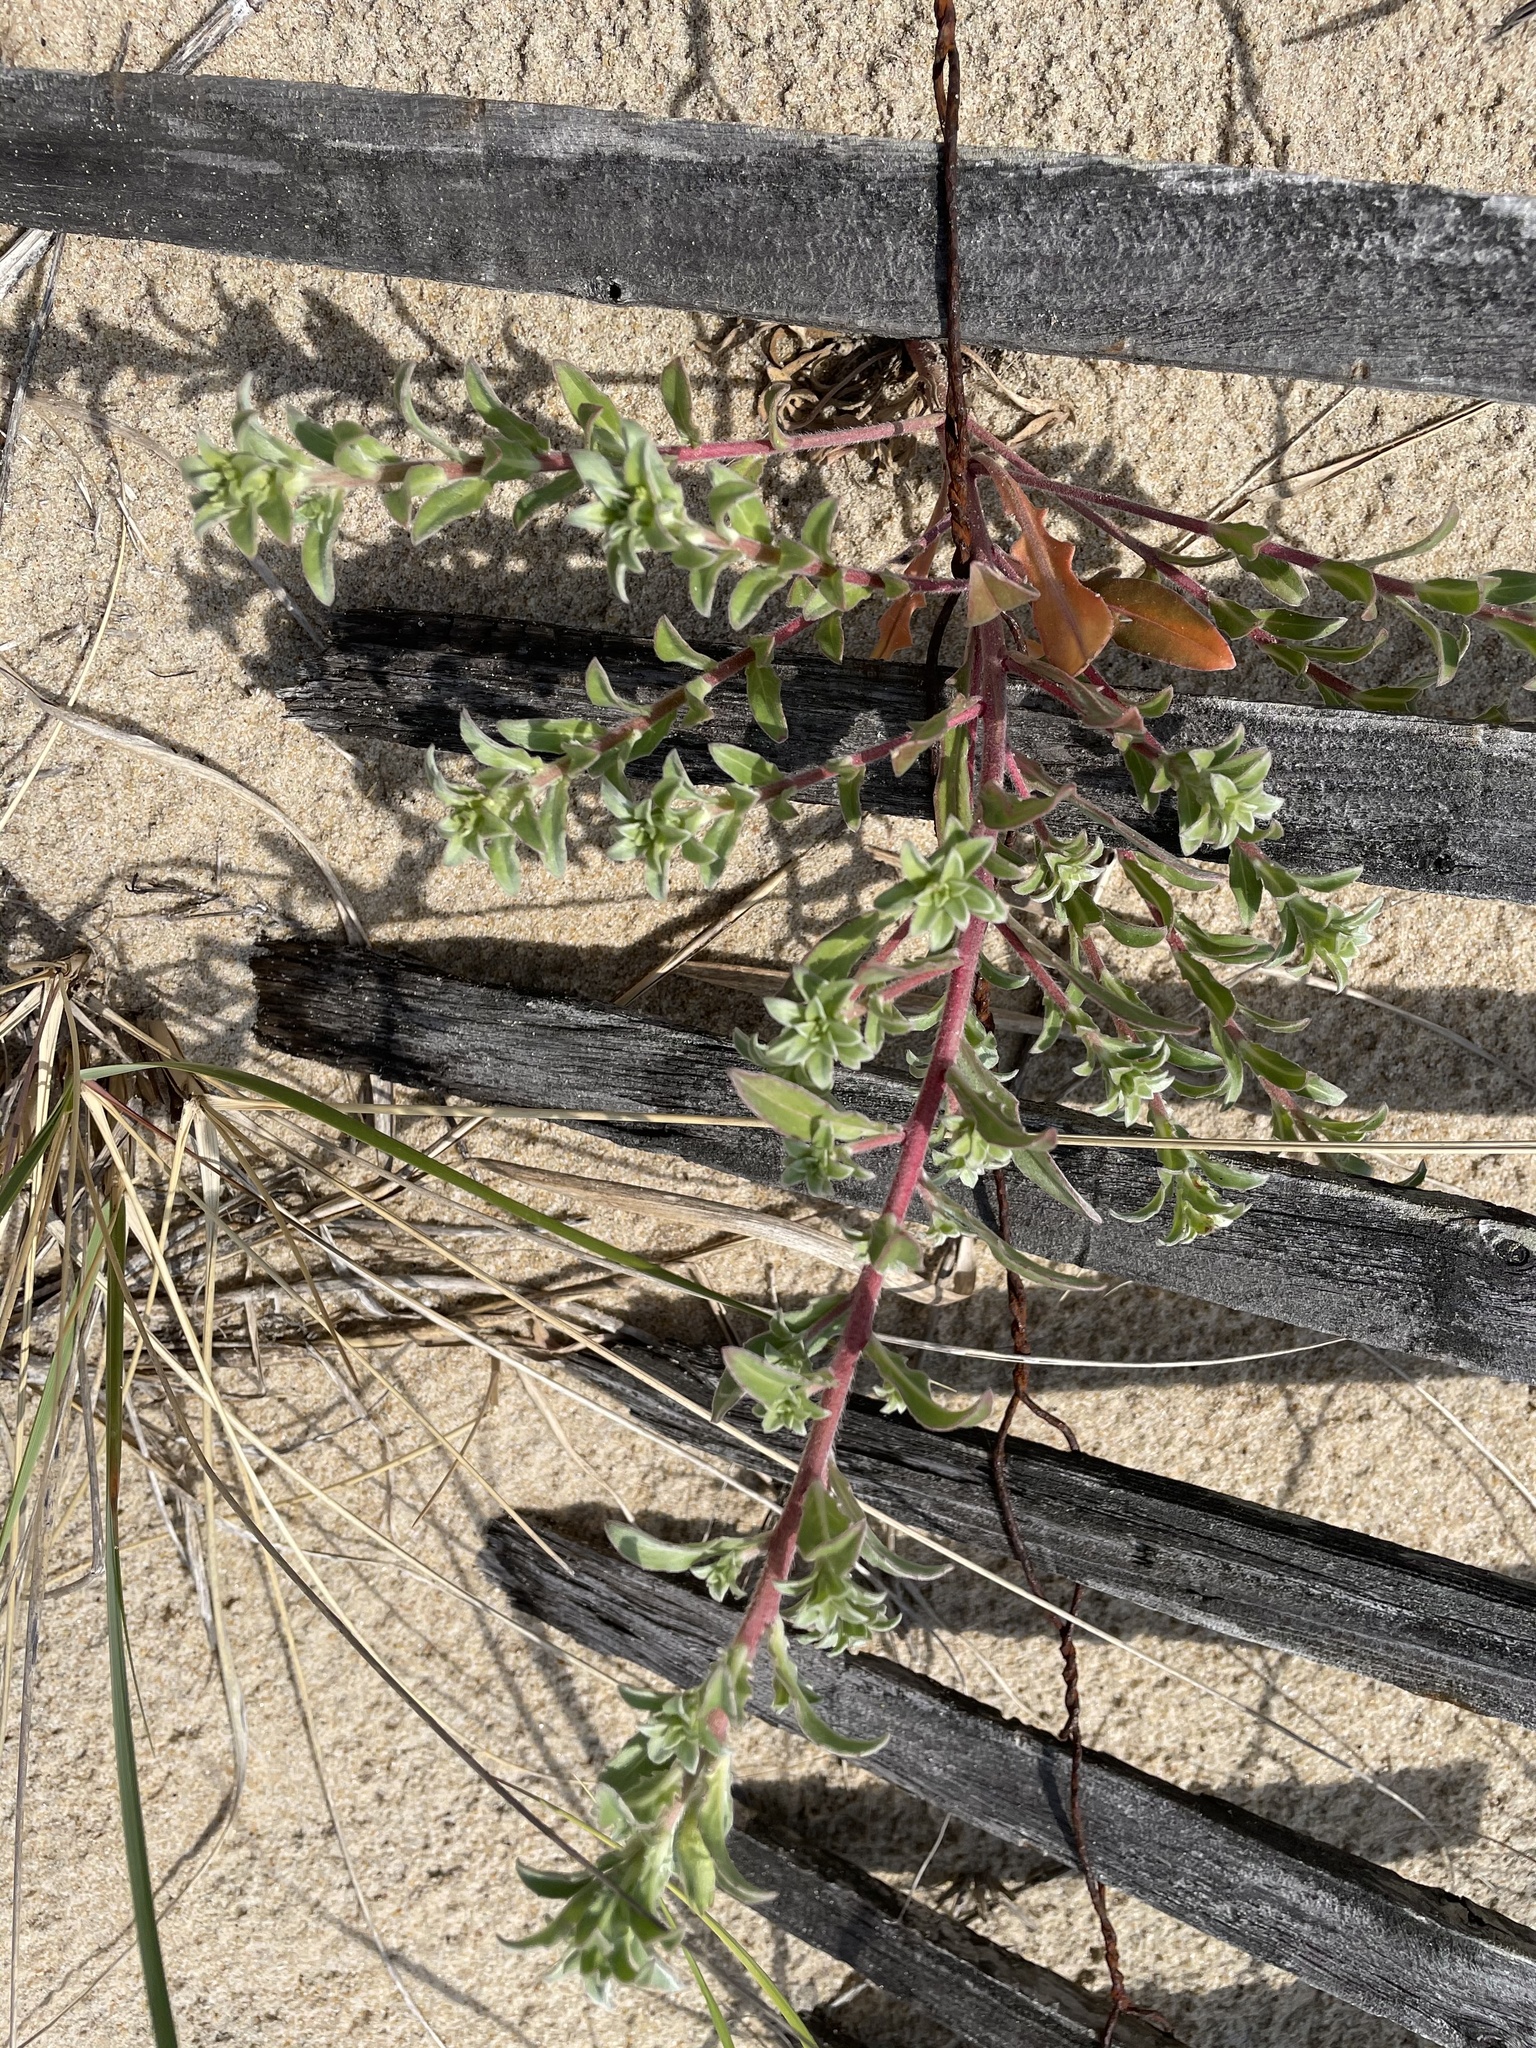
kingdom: Plantae
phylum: Tracheophyta
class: Magnoliopsida
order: Myrtales
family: Onagraceae
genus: Oenothera
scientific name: Oenothera drummondii
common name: Beach evening-primrose
